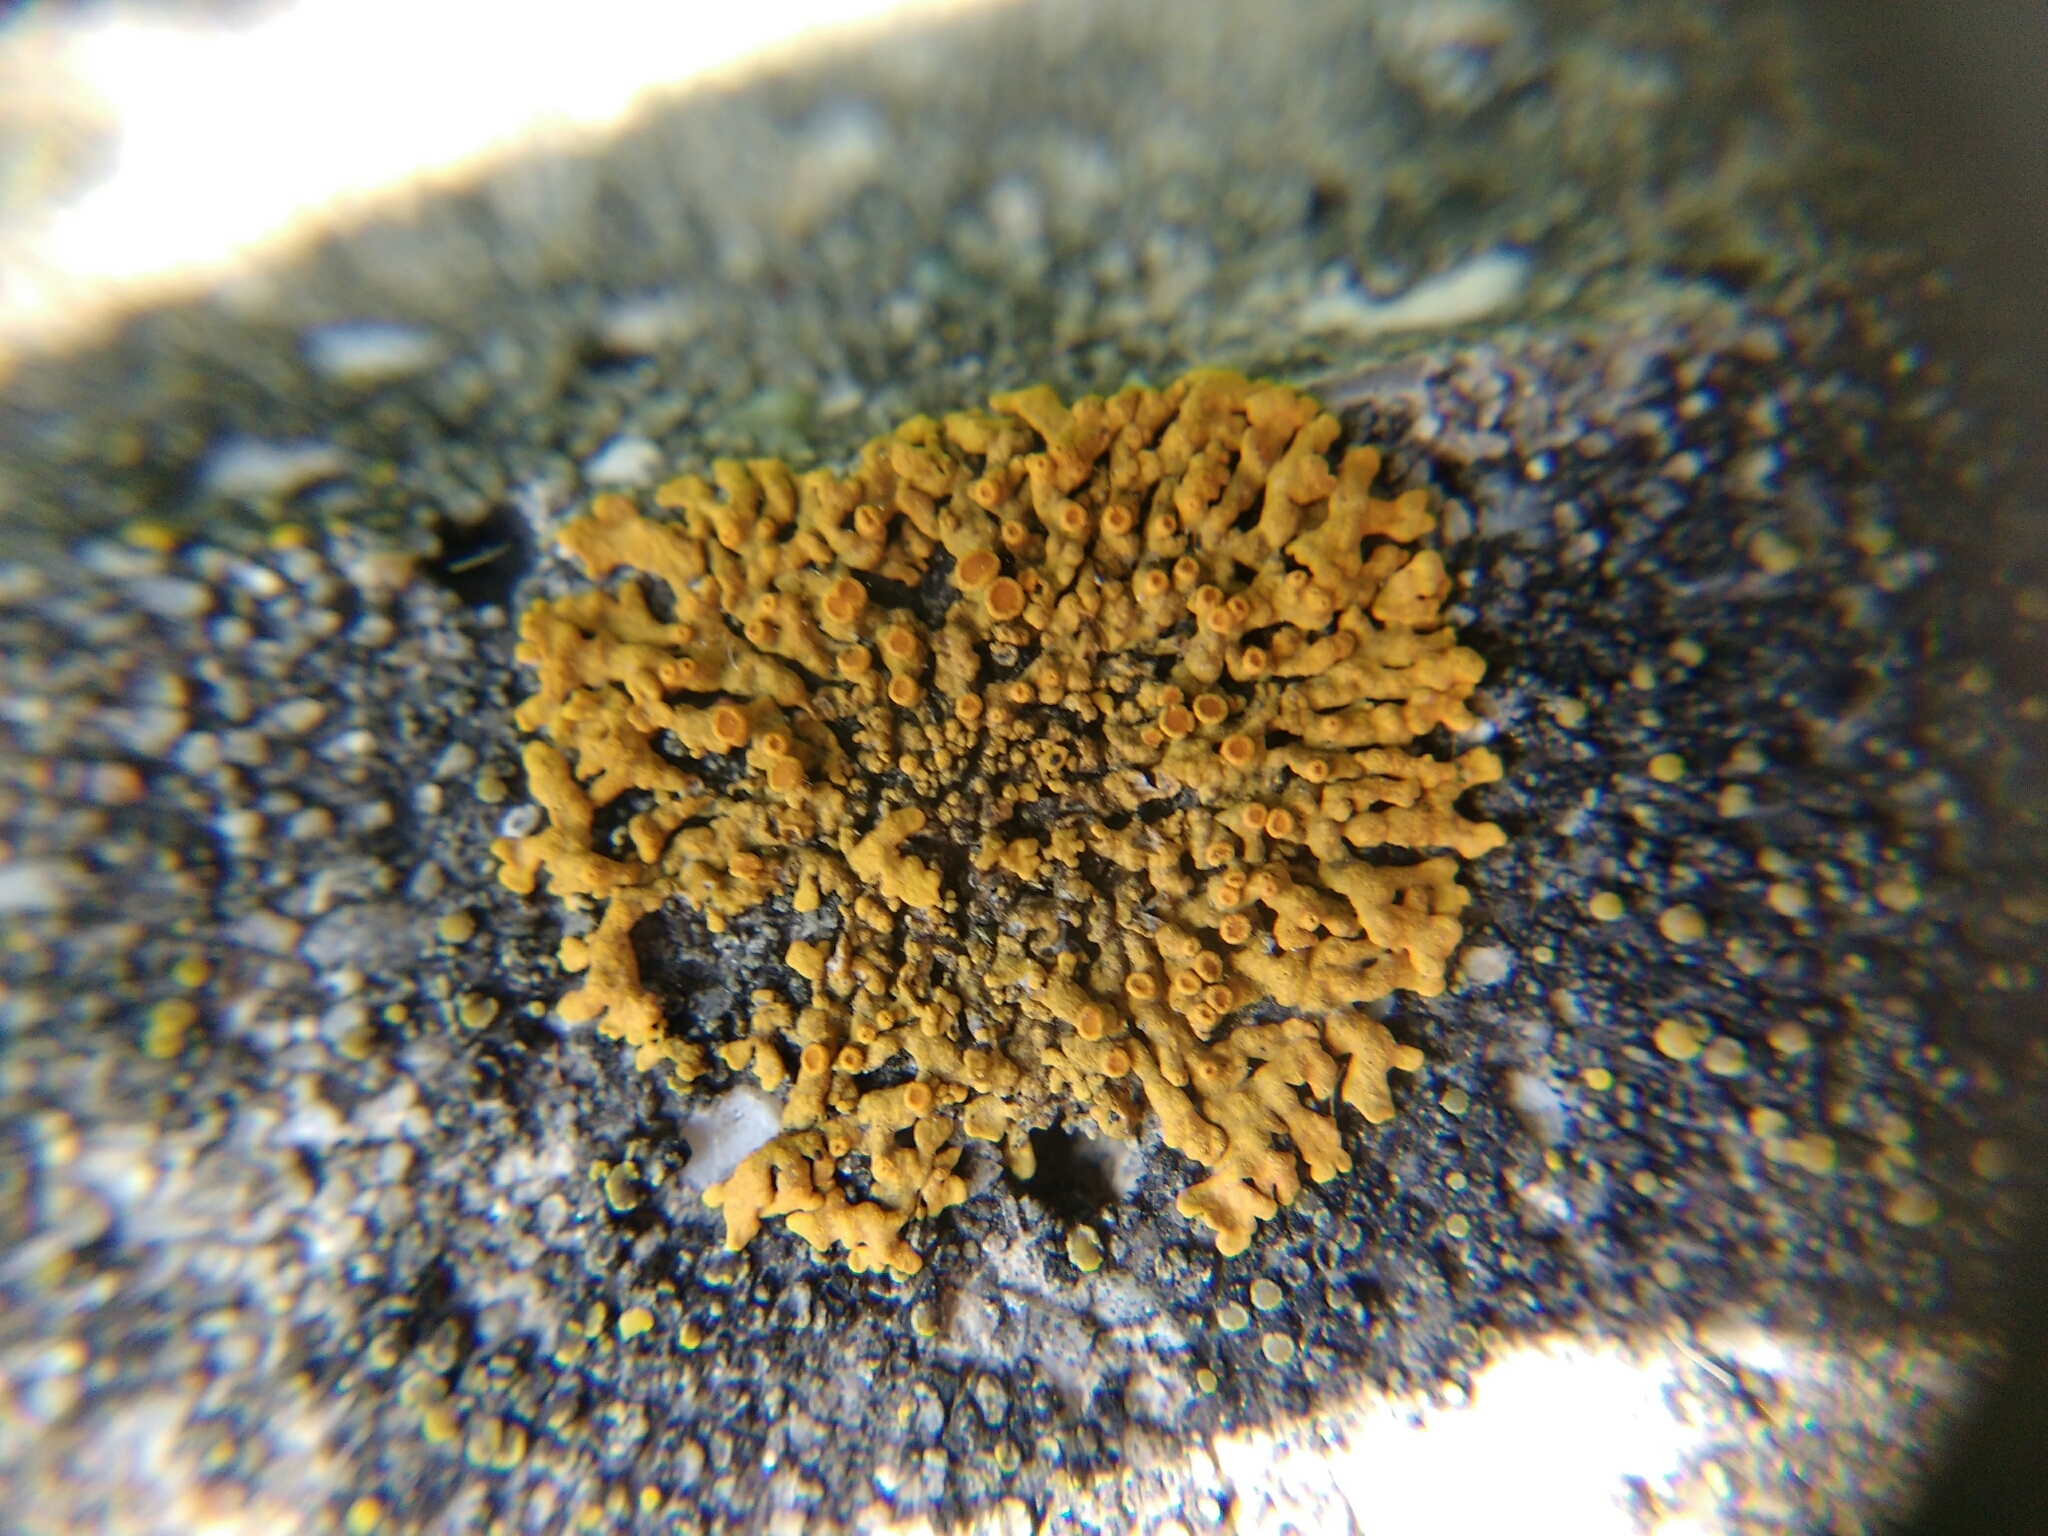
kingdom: Fungi
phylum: Ascomycota
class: Lecanoromycetes
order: Teloschistales
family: Teloschistaceae
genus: Xanthoria
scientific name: Xanthoria elegans
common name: Elegant sunburst lichen
